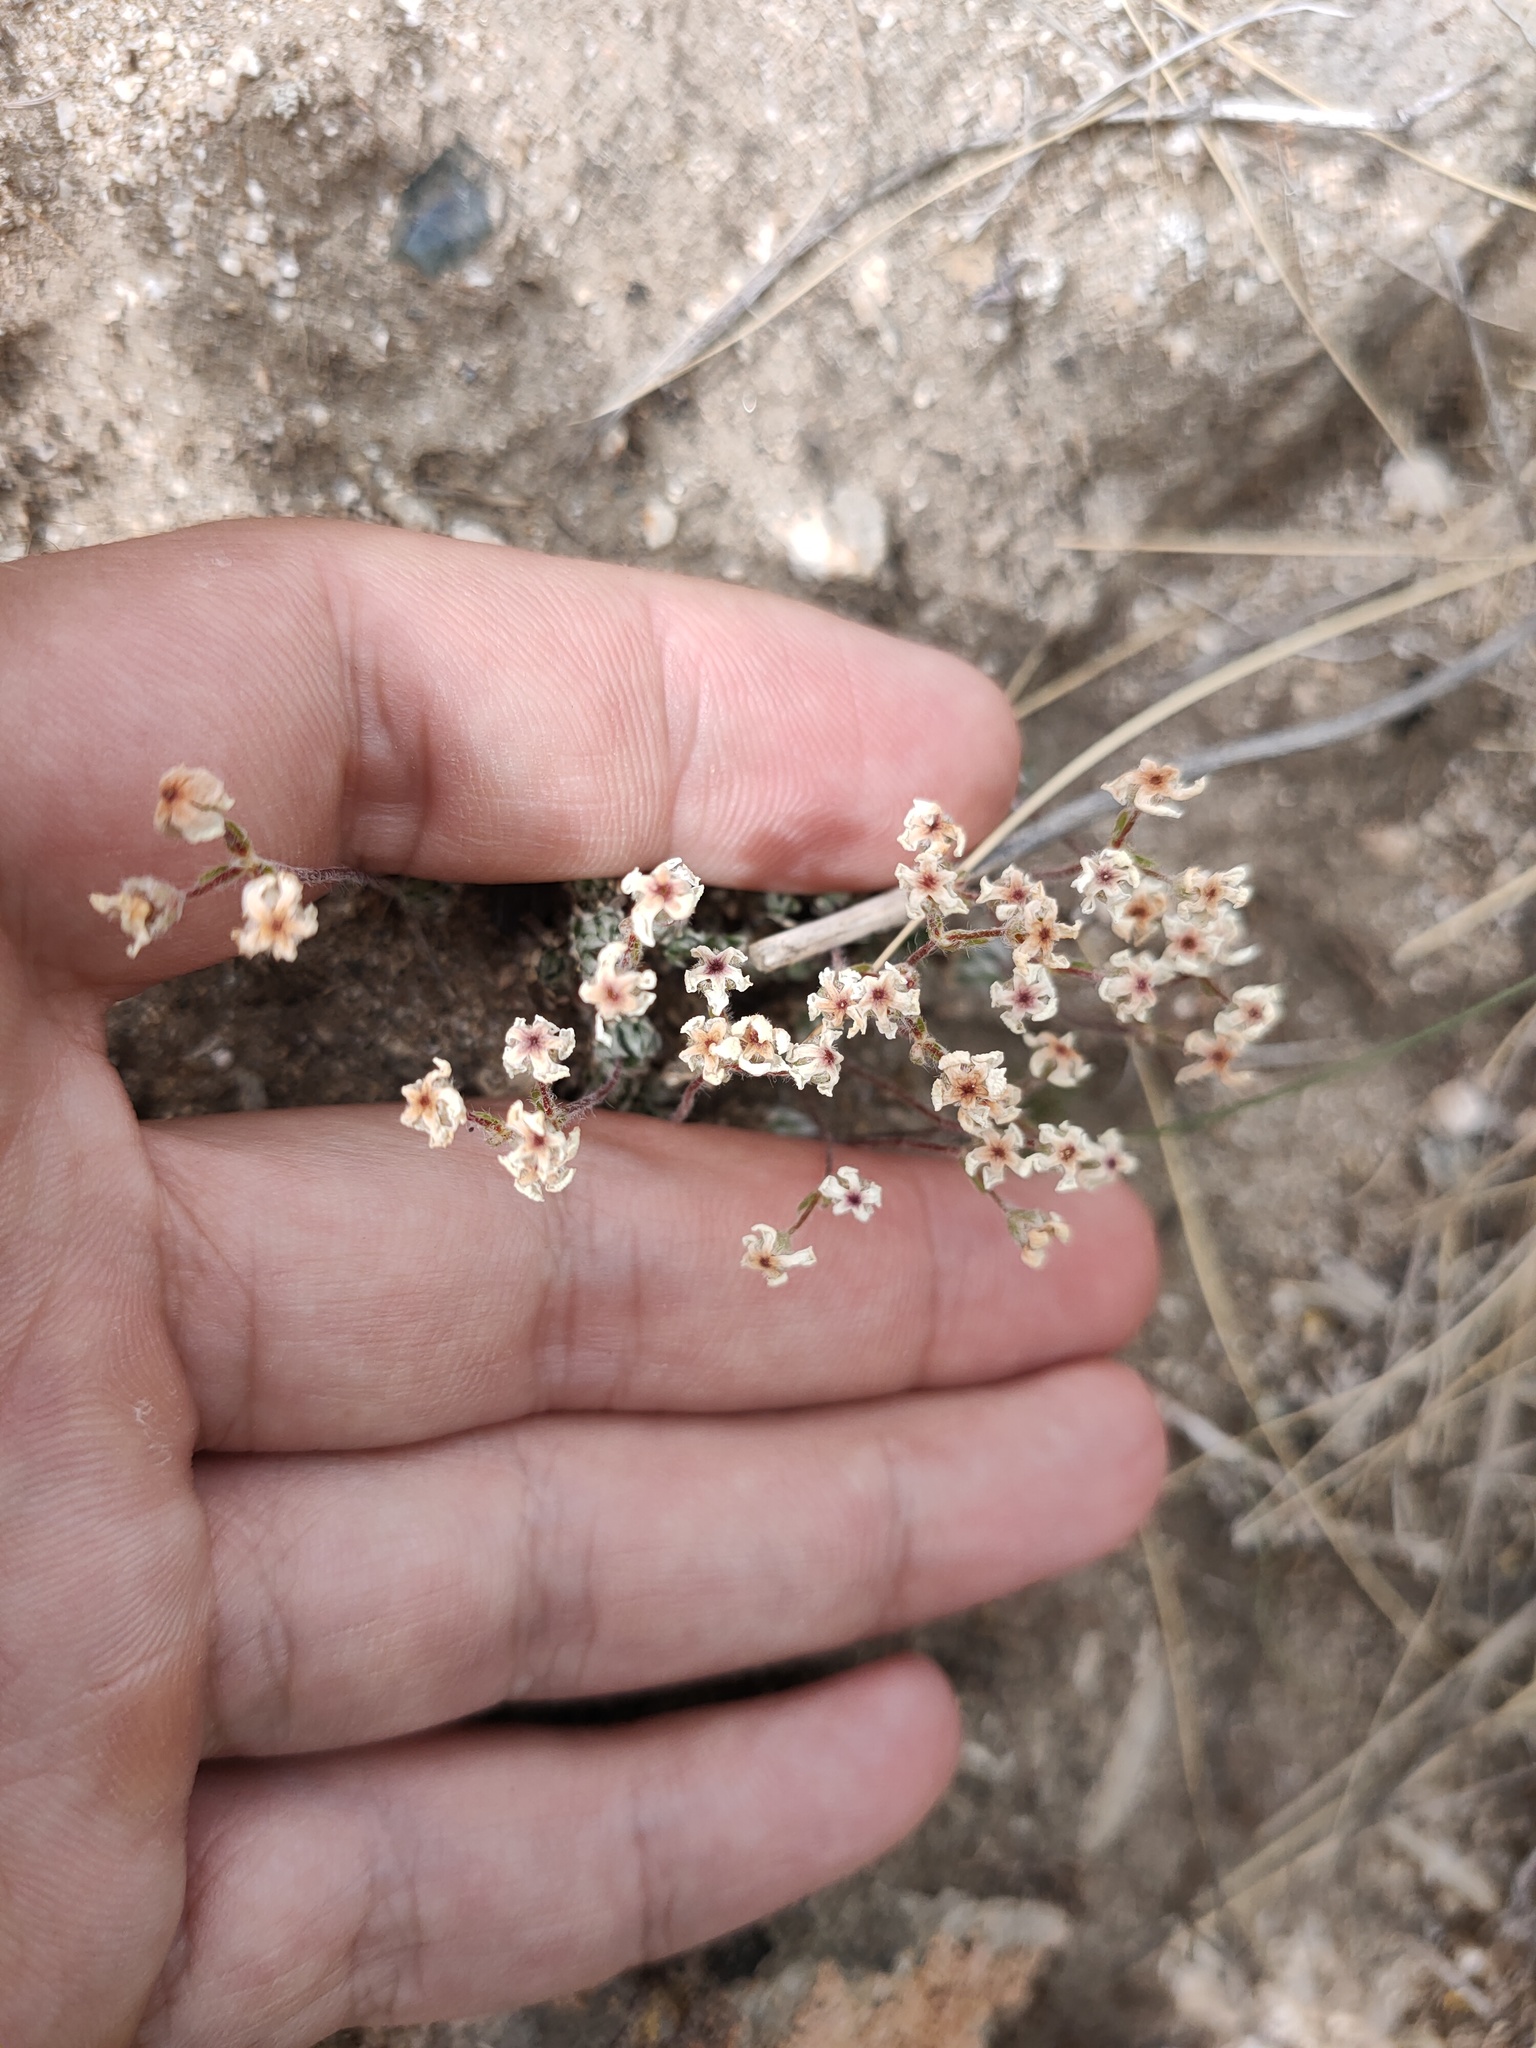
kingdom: Plantae
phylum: Tracheophyta
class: Magnoliopsida
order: Ericales
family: Primulaceae
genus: Androsace
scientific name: Androsace incana
